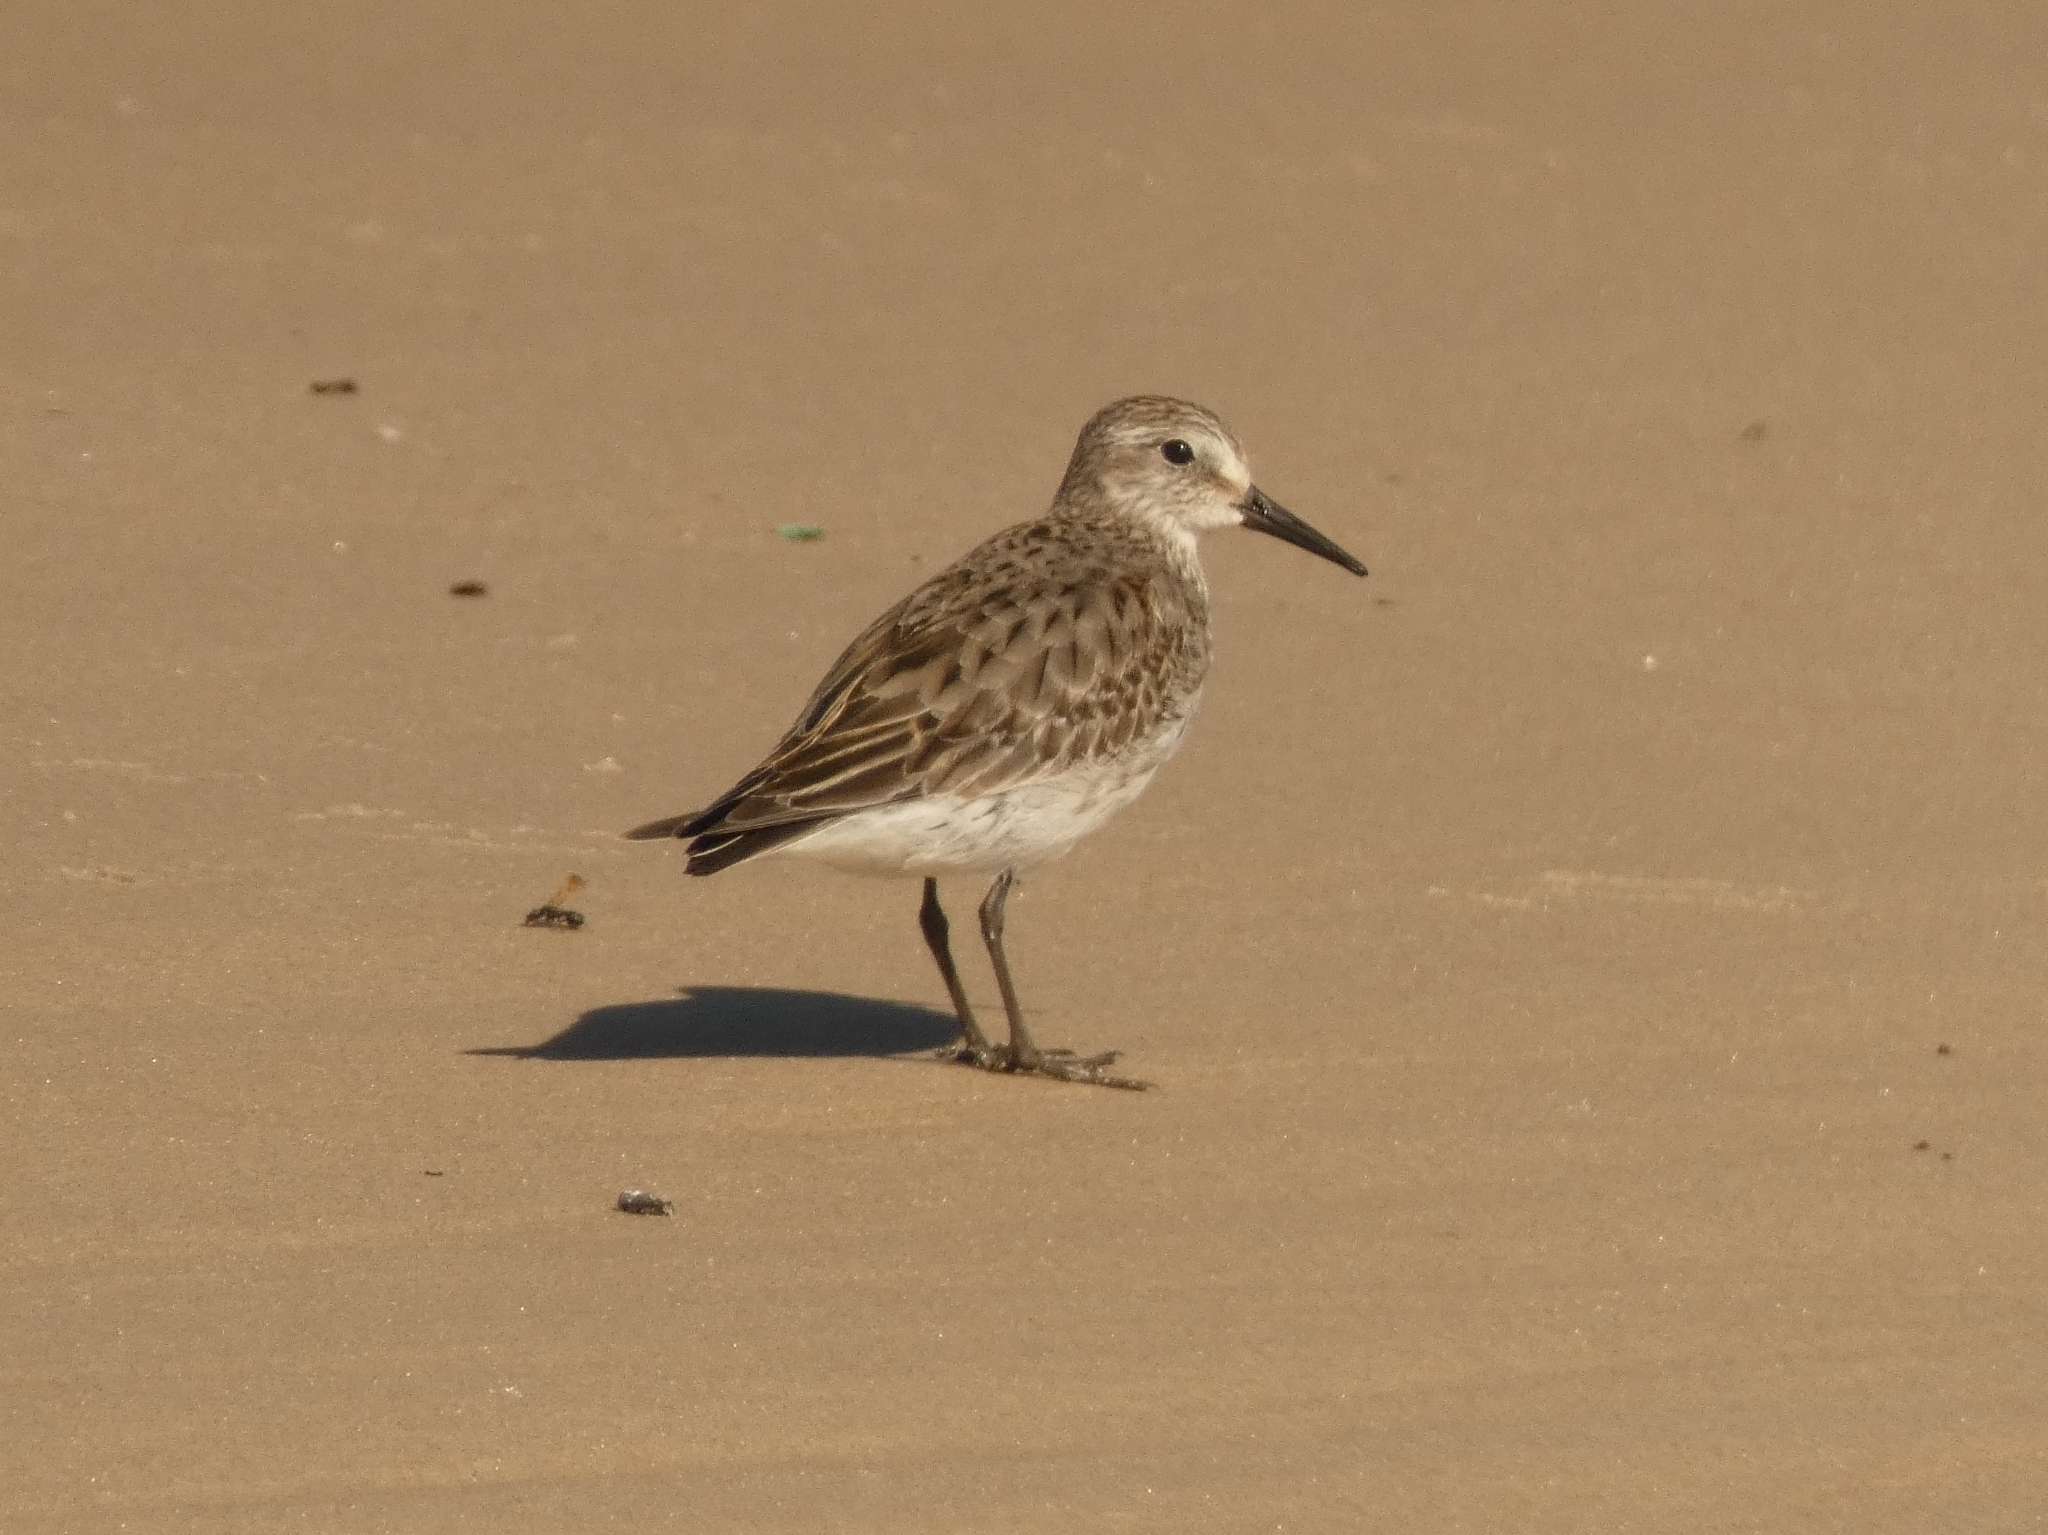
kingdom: Animalia
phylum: Chordata
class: Aves
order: Charadriiformes
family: Scolopacidae
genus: Calidris
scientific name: Calidris fuscicollis
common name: White-rumped sandpiper
